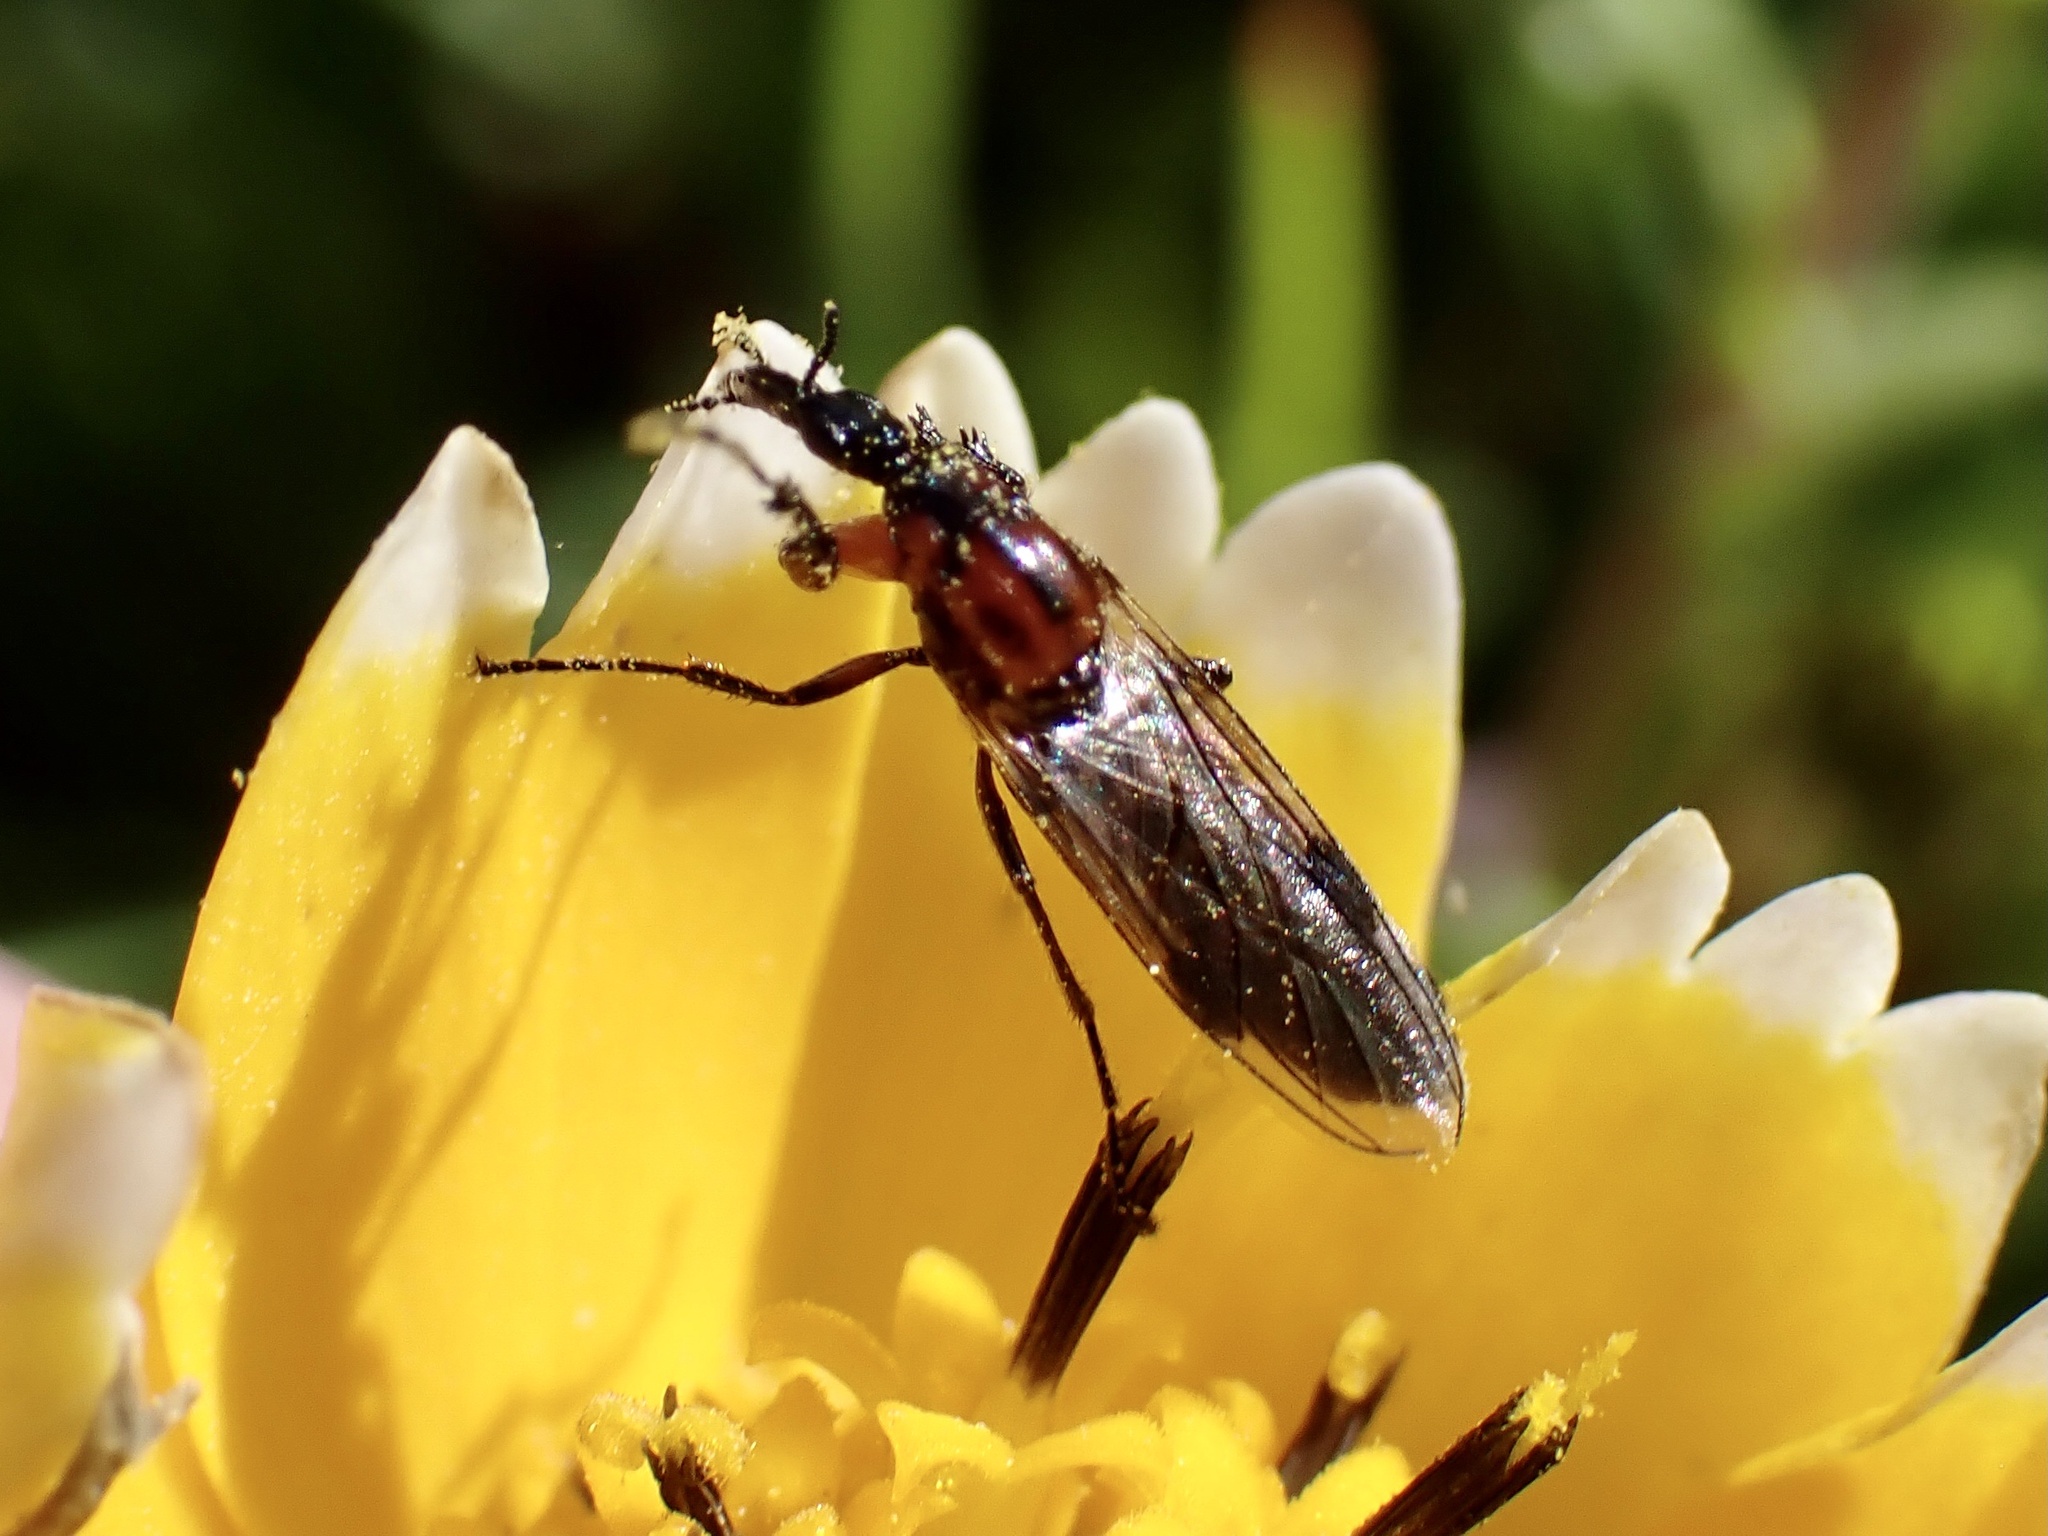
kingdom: Animalia
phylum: Arthropoda
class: Insecta
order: Diptera
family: Bibionidae
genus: Dilophus
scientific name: Dilophus strigilatus
